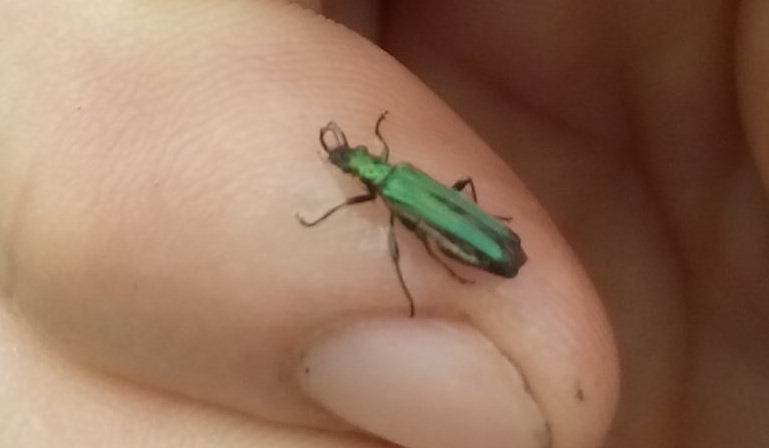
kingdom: Animalia
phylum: Arthropoda
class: Insecta
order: Coleoptera
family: Oedemeridae
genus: Oedemera
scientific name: Oedemera nobilis
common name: Swollen-thighed beetle
